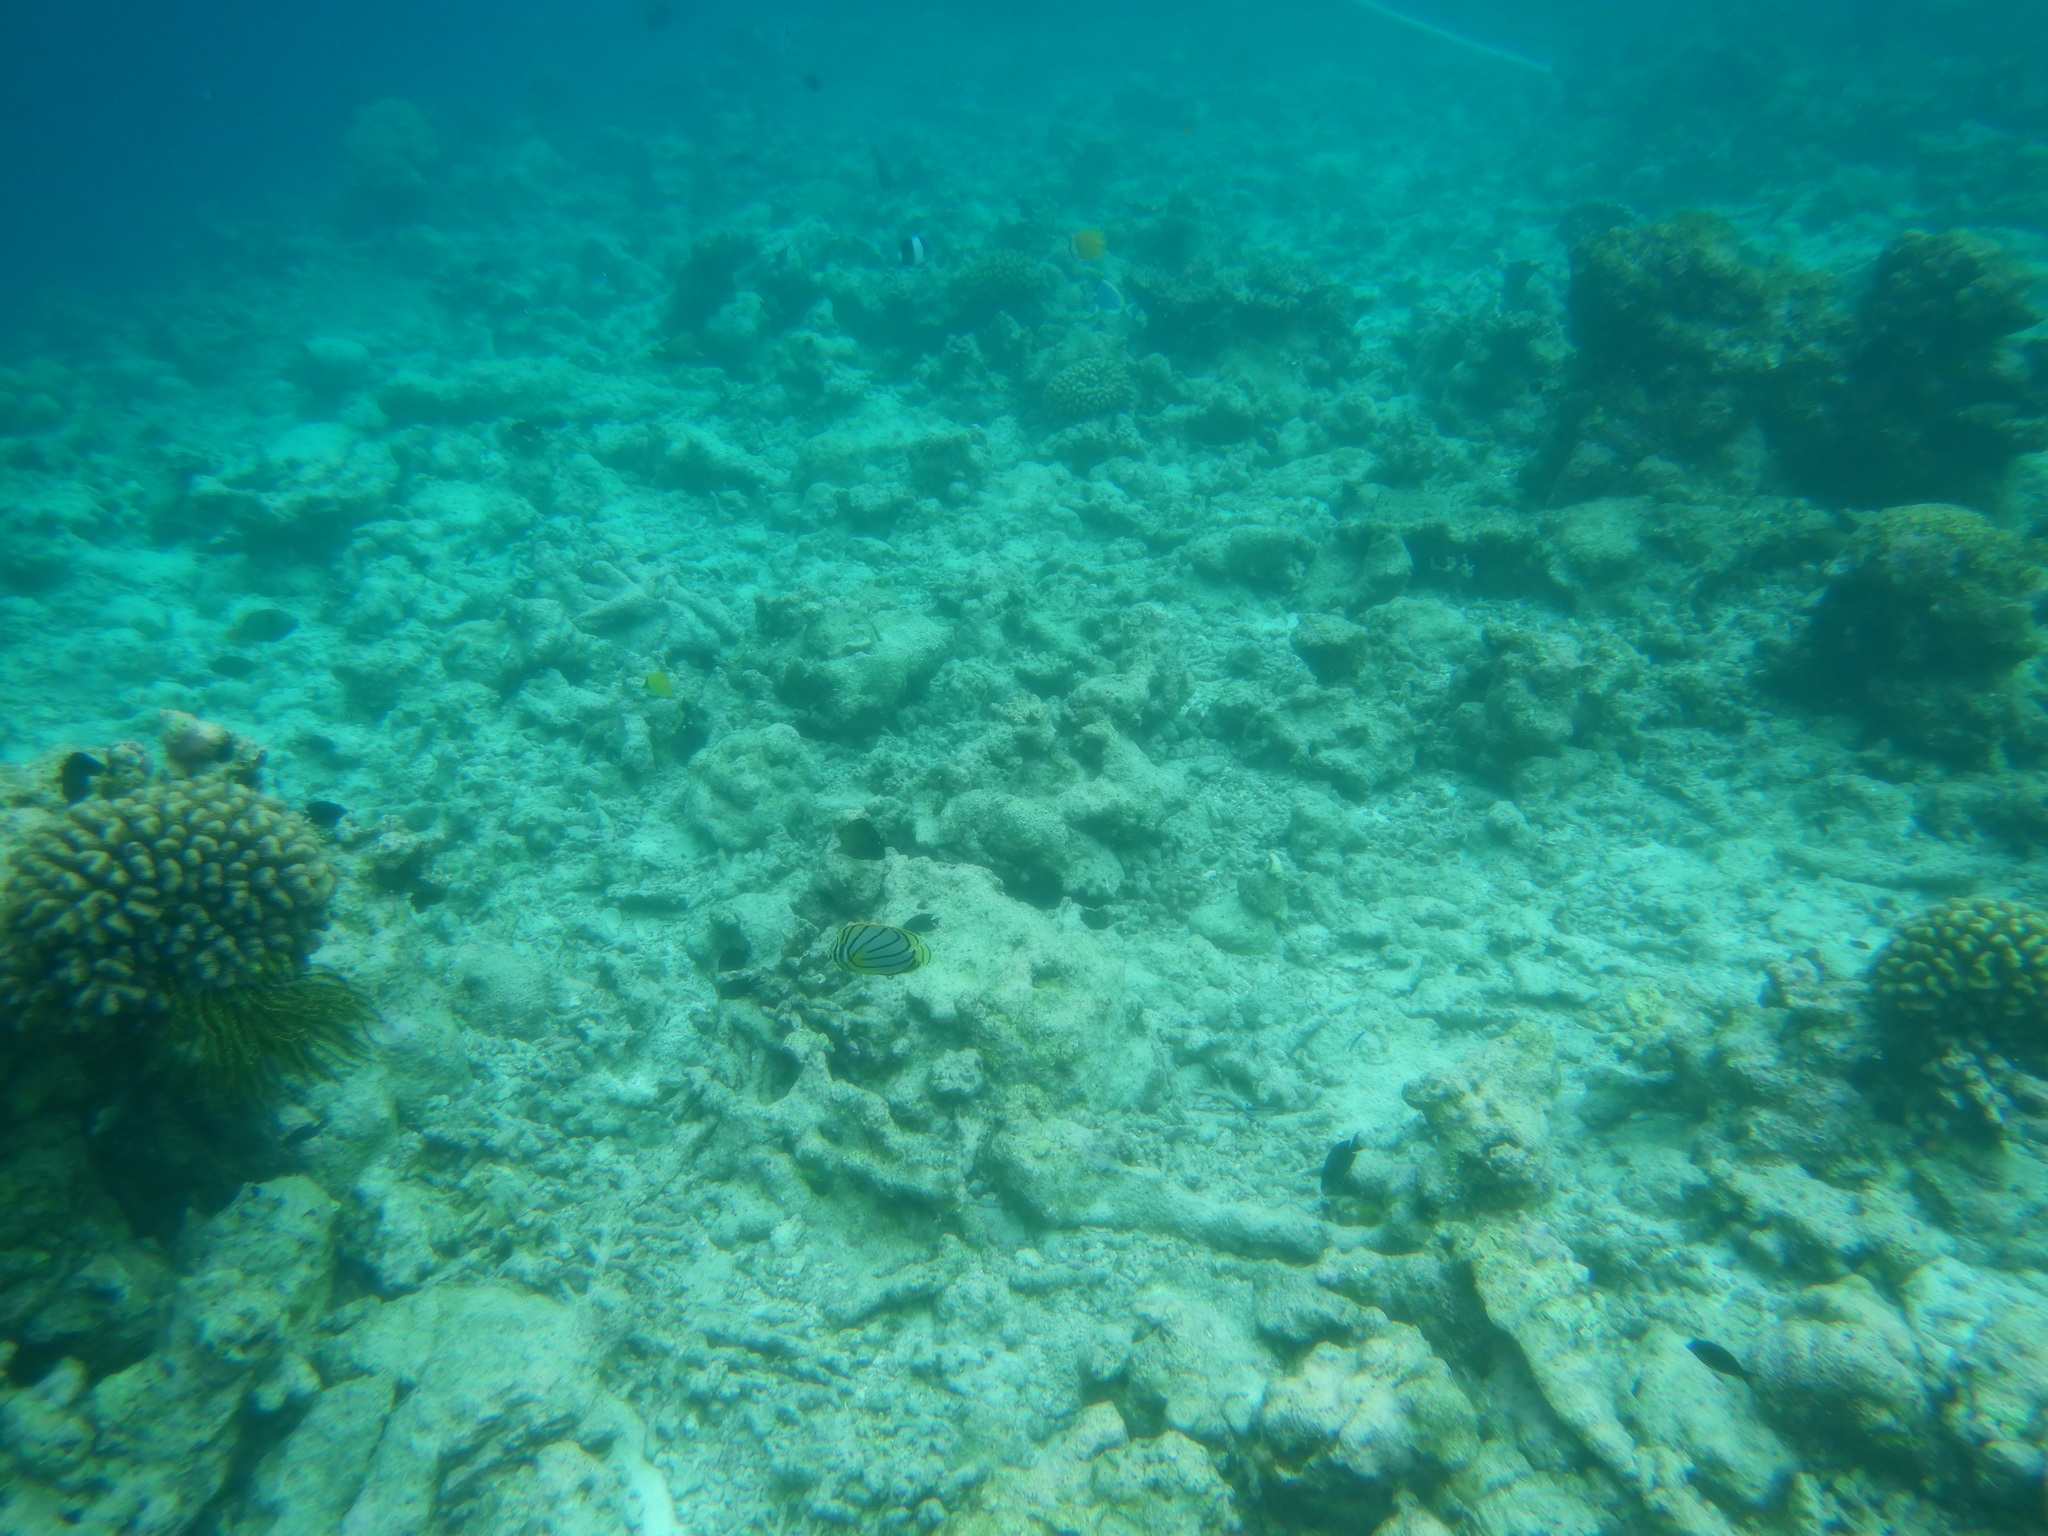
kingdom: Animalia
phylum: Chordata
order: Perciformes
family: Chaetodontidae
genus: Chaetodon
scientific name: Chaetodon meyeri
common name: Meyer's butterflyfish
